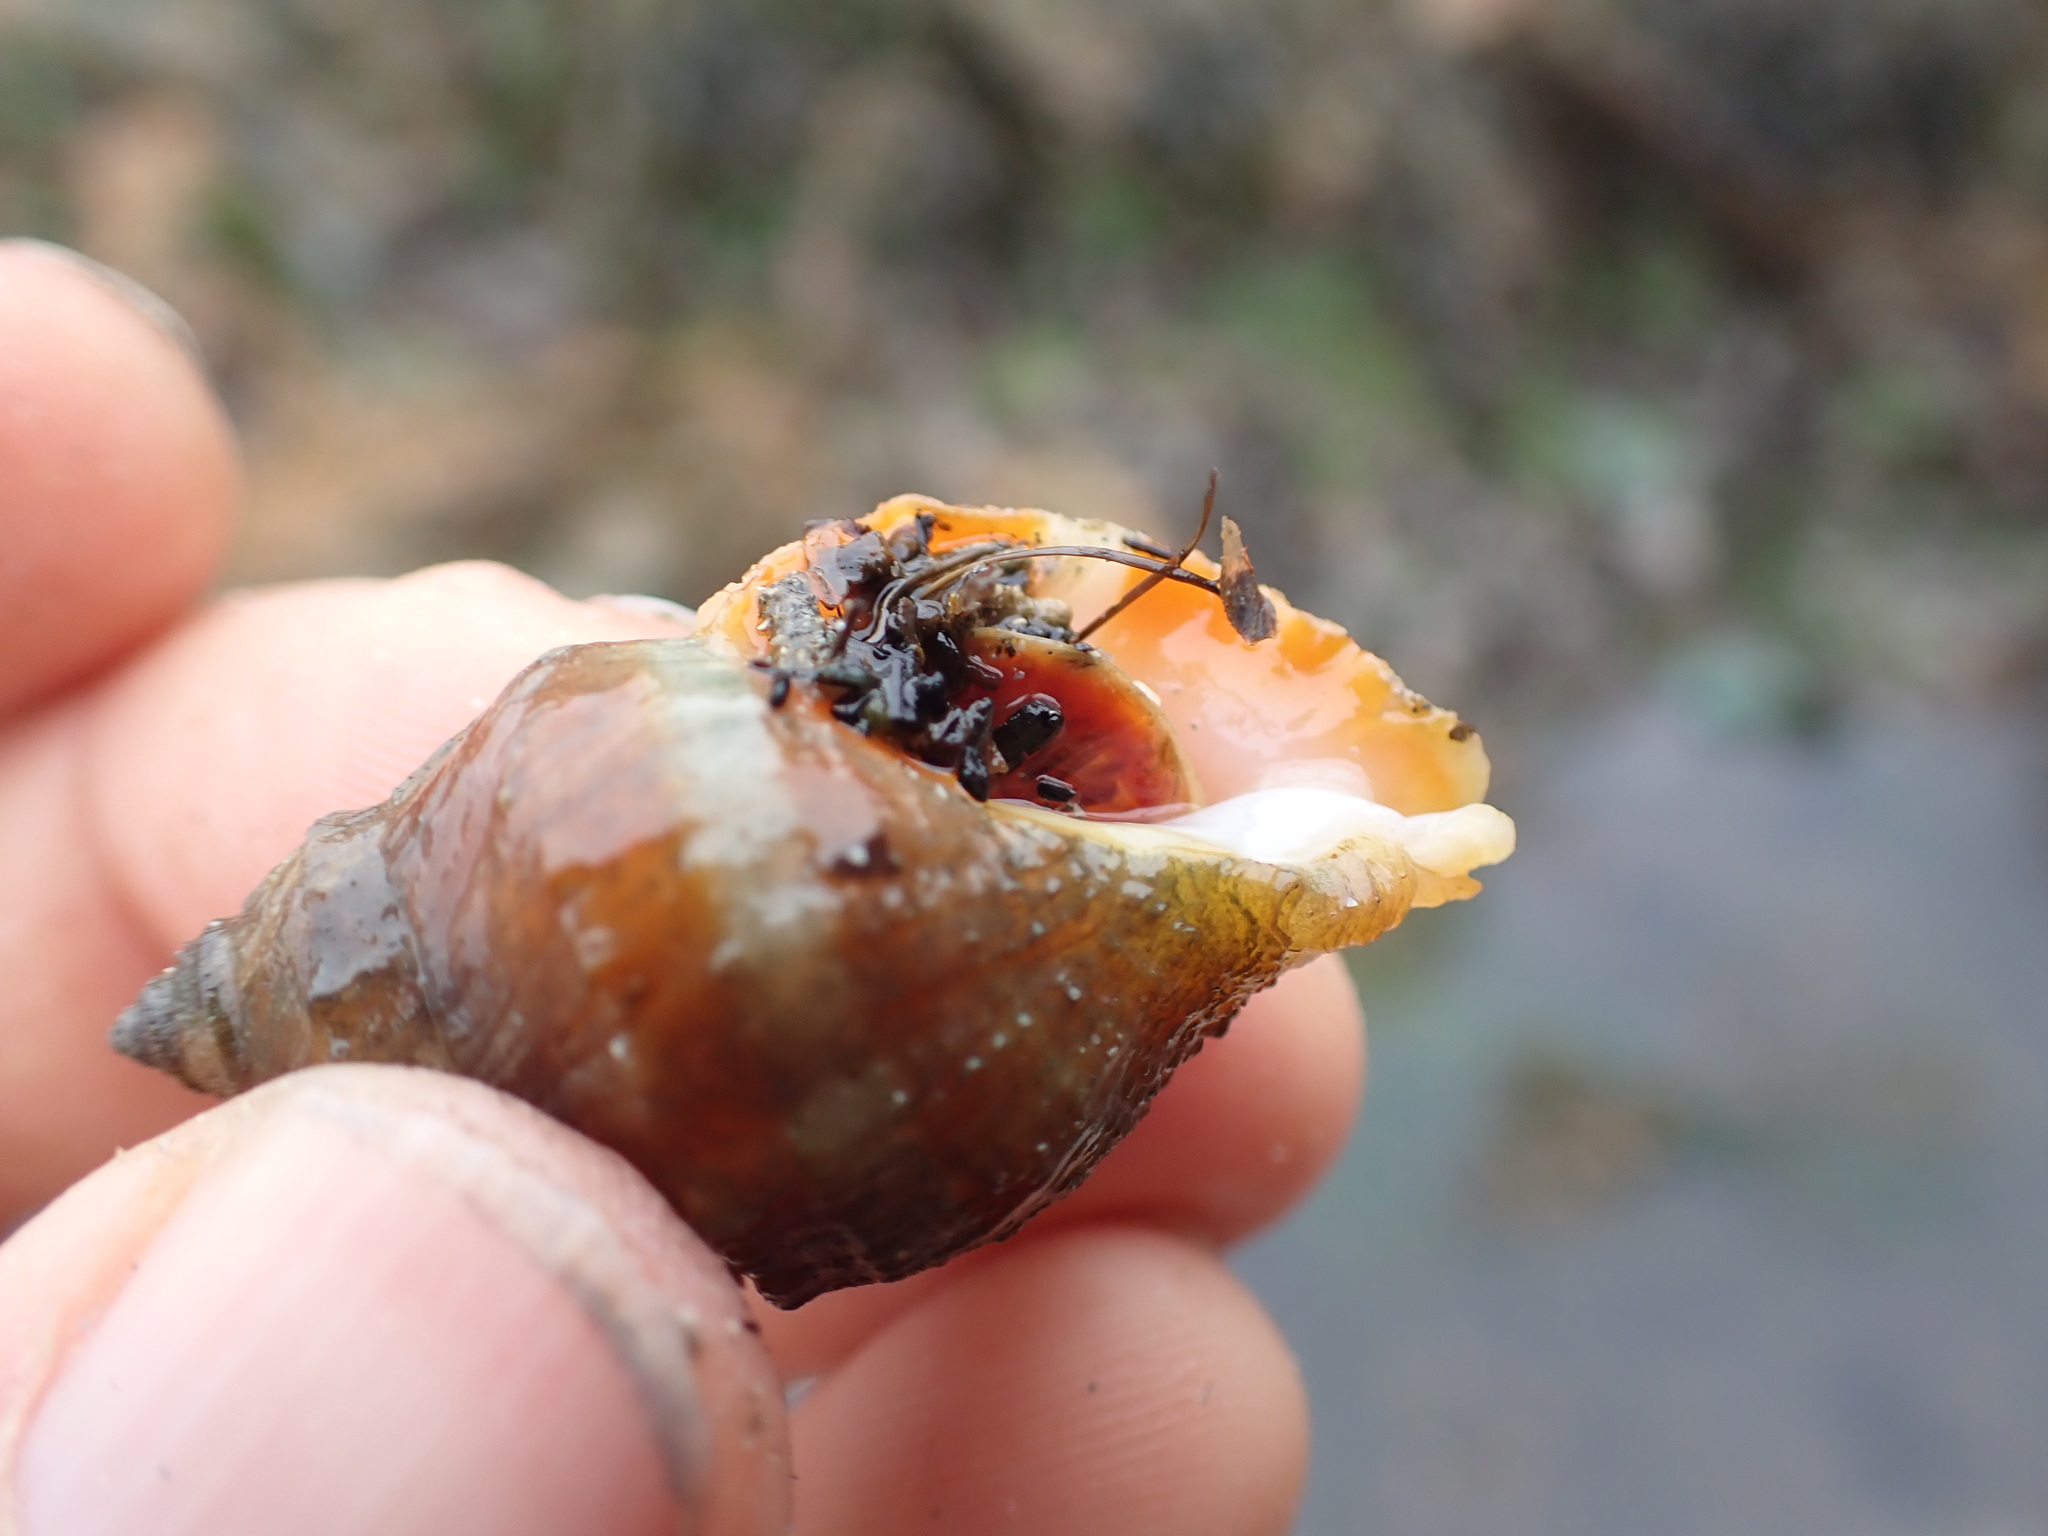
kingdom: Animalia
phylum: Mollusca
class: Gastropoda
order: Neogastropoda
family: Muricidae
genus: Nucella
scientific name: Nucella lamellosa
